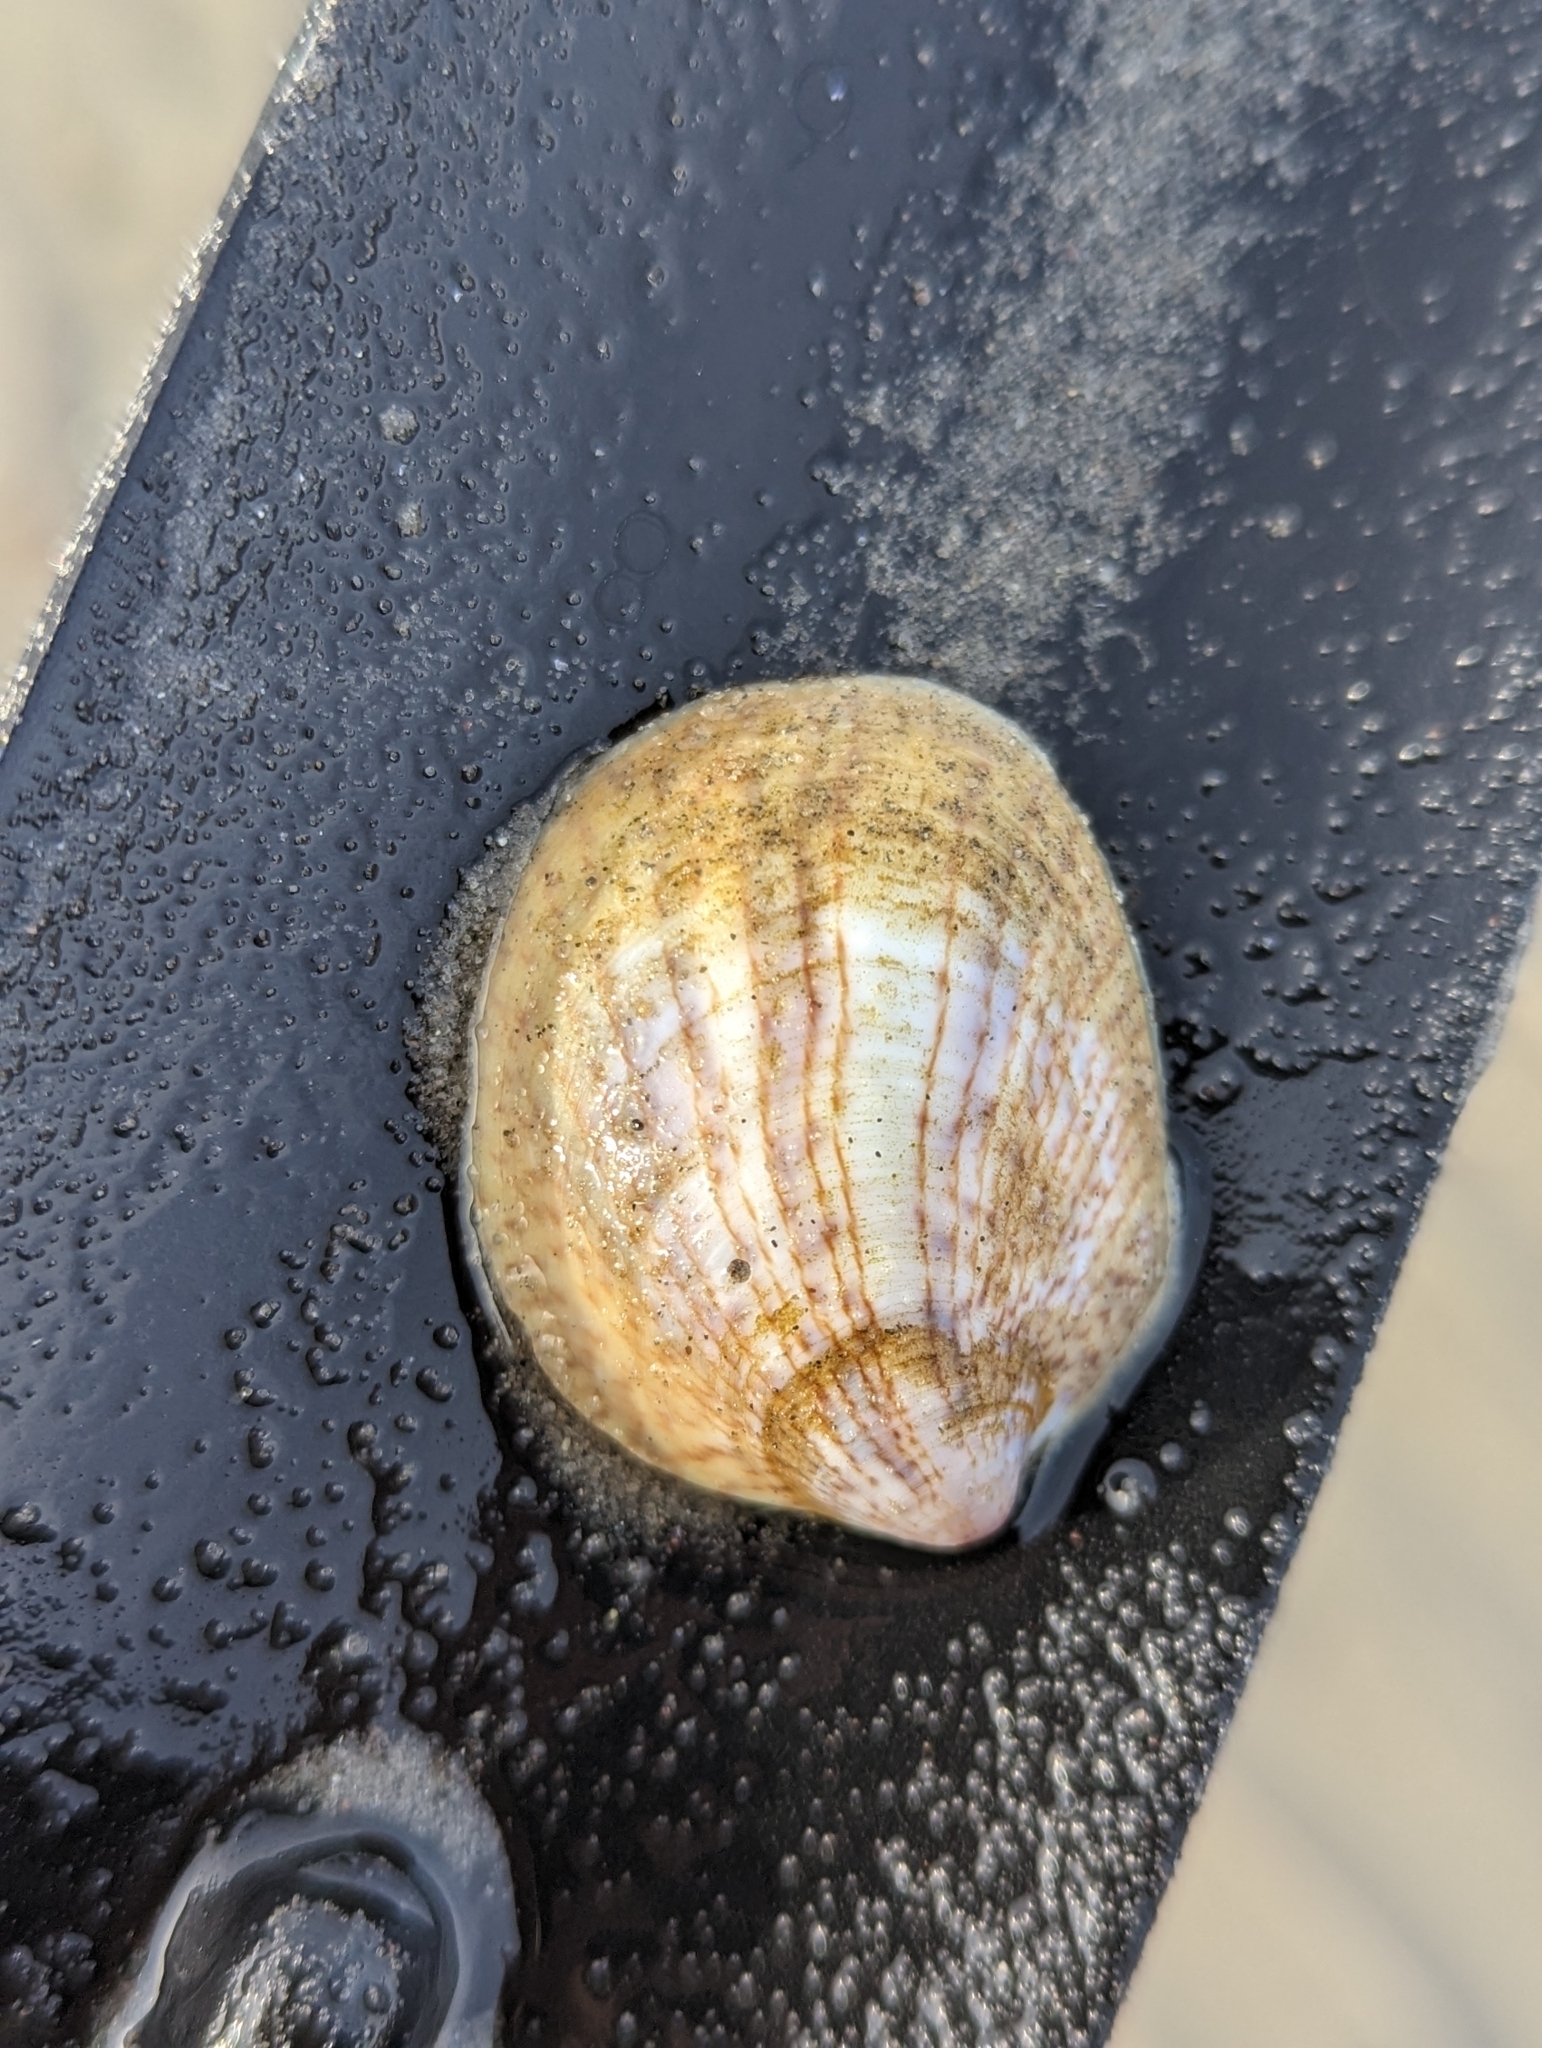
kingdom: Animalia
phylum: Mollusca
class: Gastropoda
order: Littorinimorpha
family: Calyptraeidae
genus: Crepidula
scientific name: Crepidula fornicata
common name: Slipper limpet
